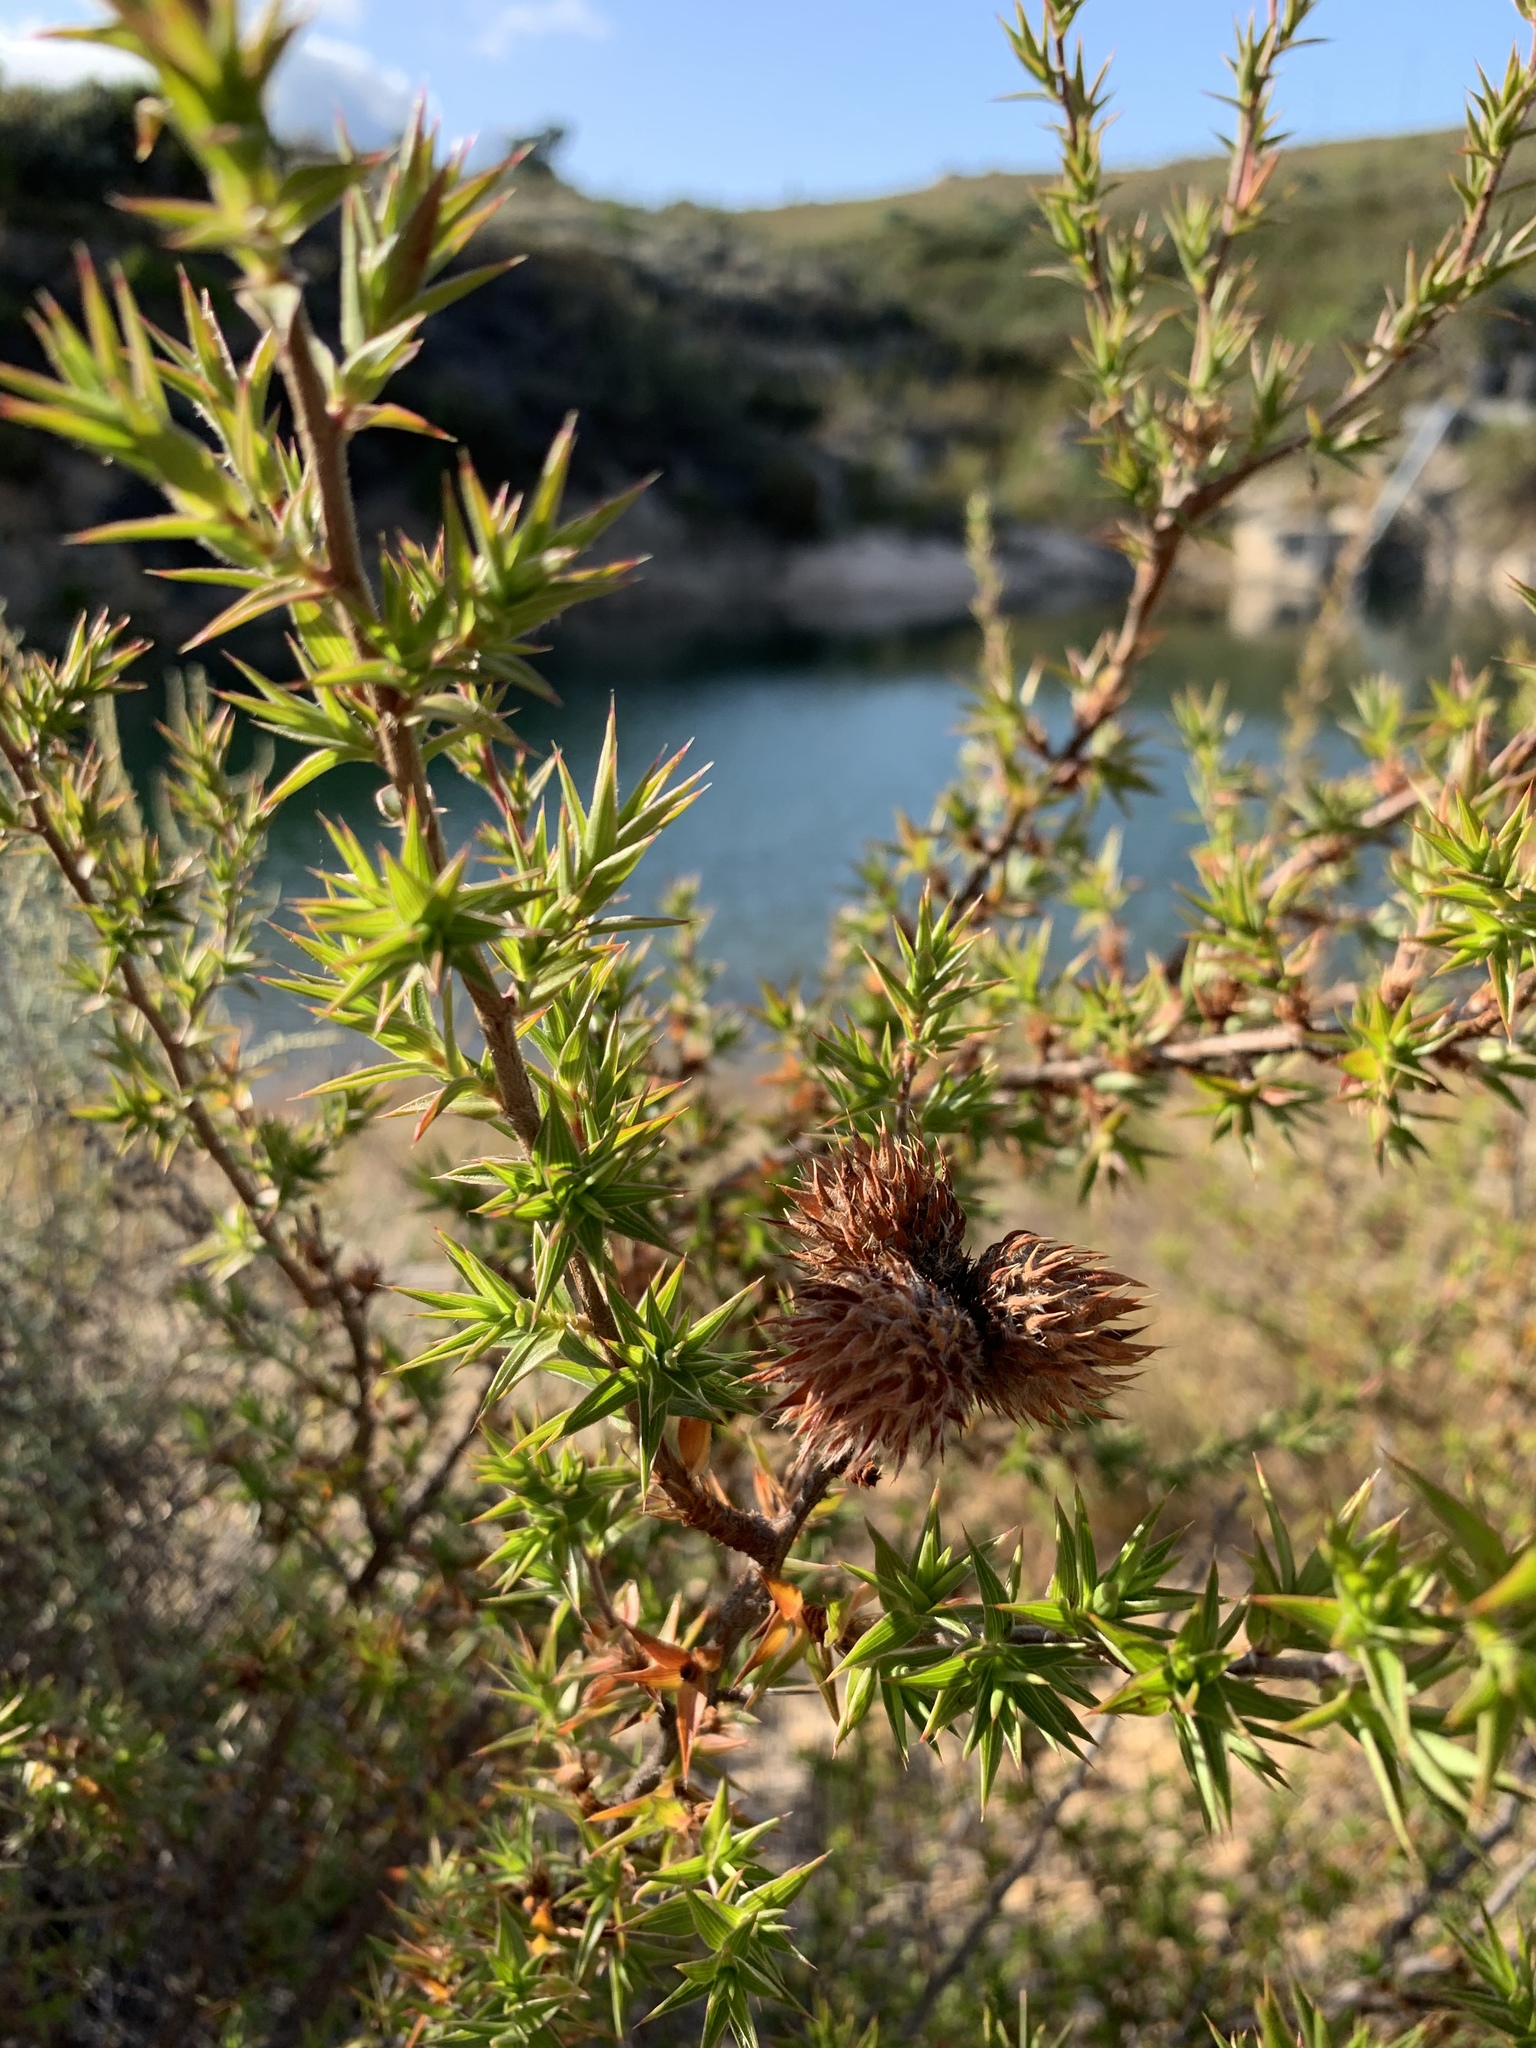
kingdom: Plantae
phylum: Tracheophyta
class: Magnoliopsida
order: Rosales
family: Rosaceae
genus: Cliffortia
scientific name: Cliffortia ruscifolia
